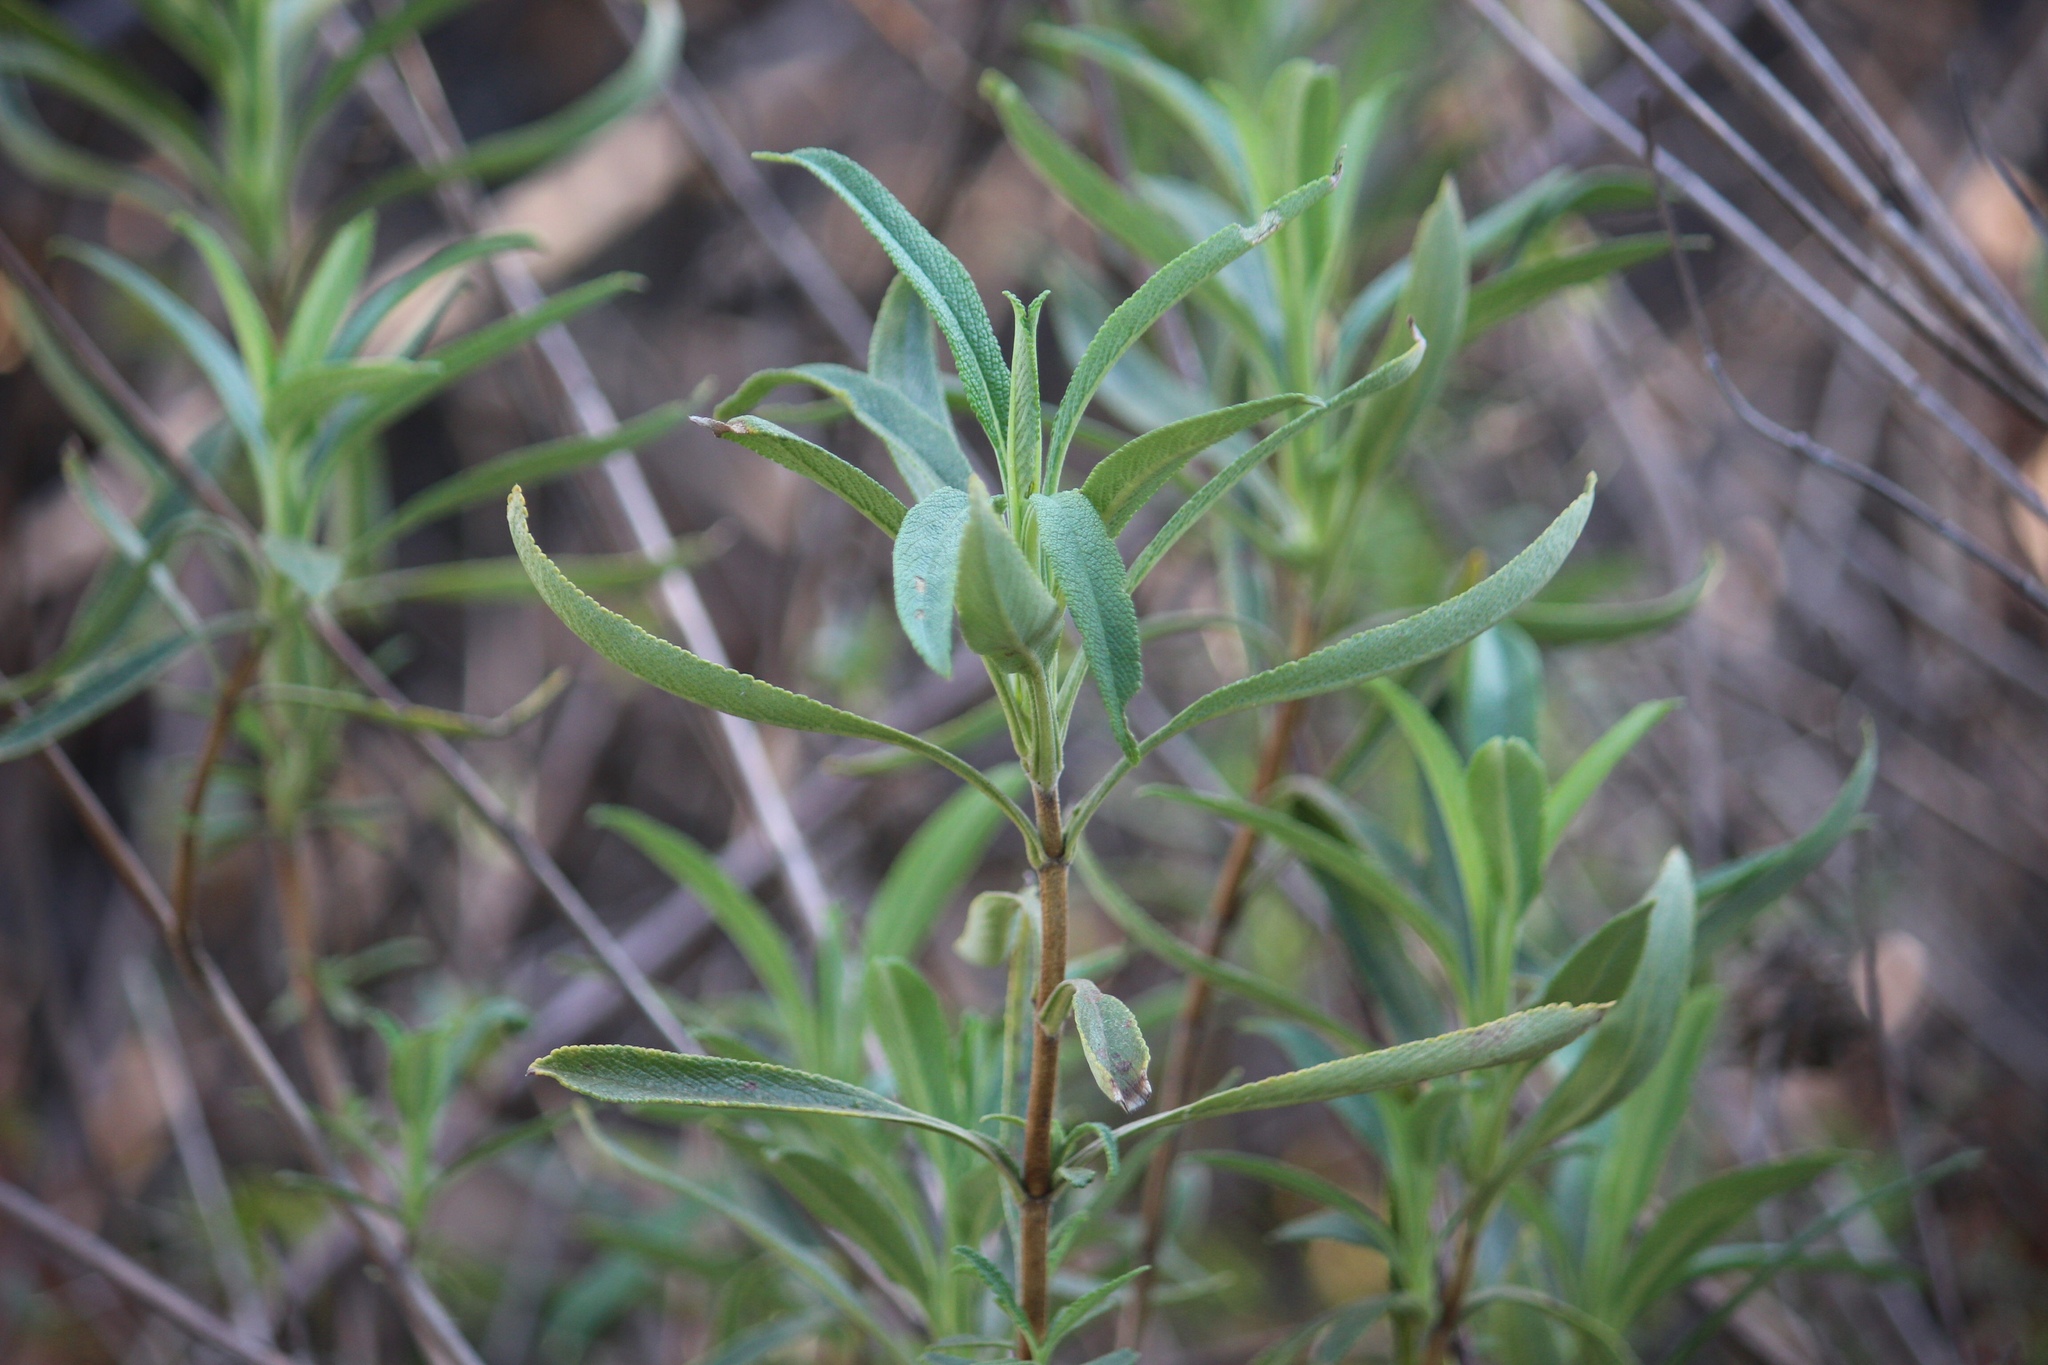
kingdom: Plantae
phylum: Tracheophyta
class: Magnoliopsida
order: Lamiales
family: Lamiaceae
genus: Salvia
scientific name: Salvia mellifera
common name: Black sage
